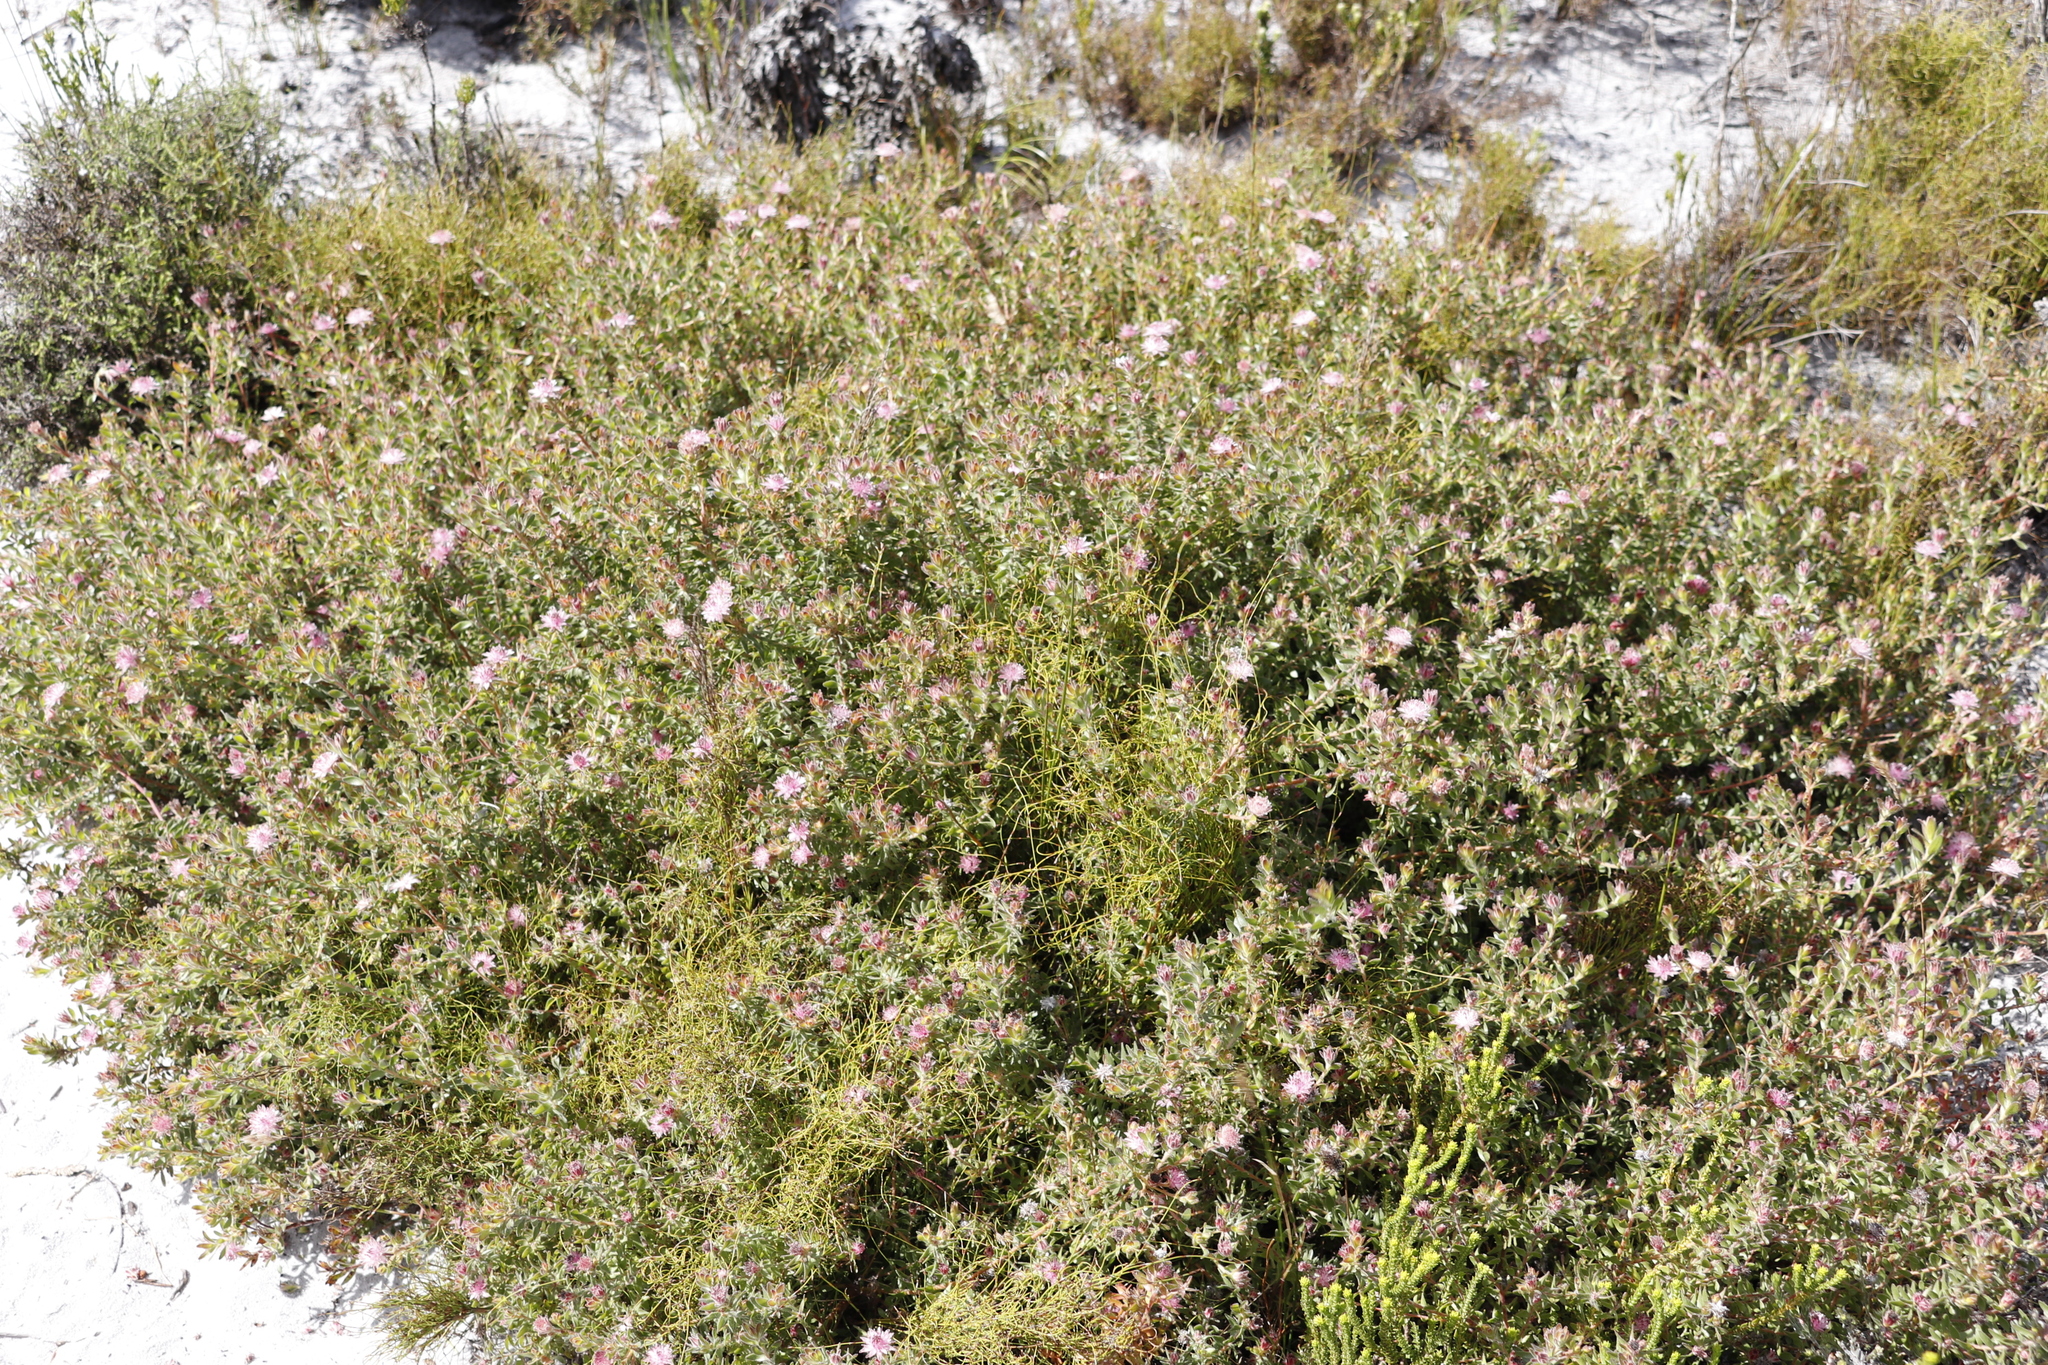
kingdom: Plantae
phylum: Tracheophyta
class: Magnoliopsida
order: Proteales
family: Proteaceae
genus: Diastella
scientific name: Diastella divaricata
